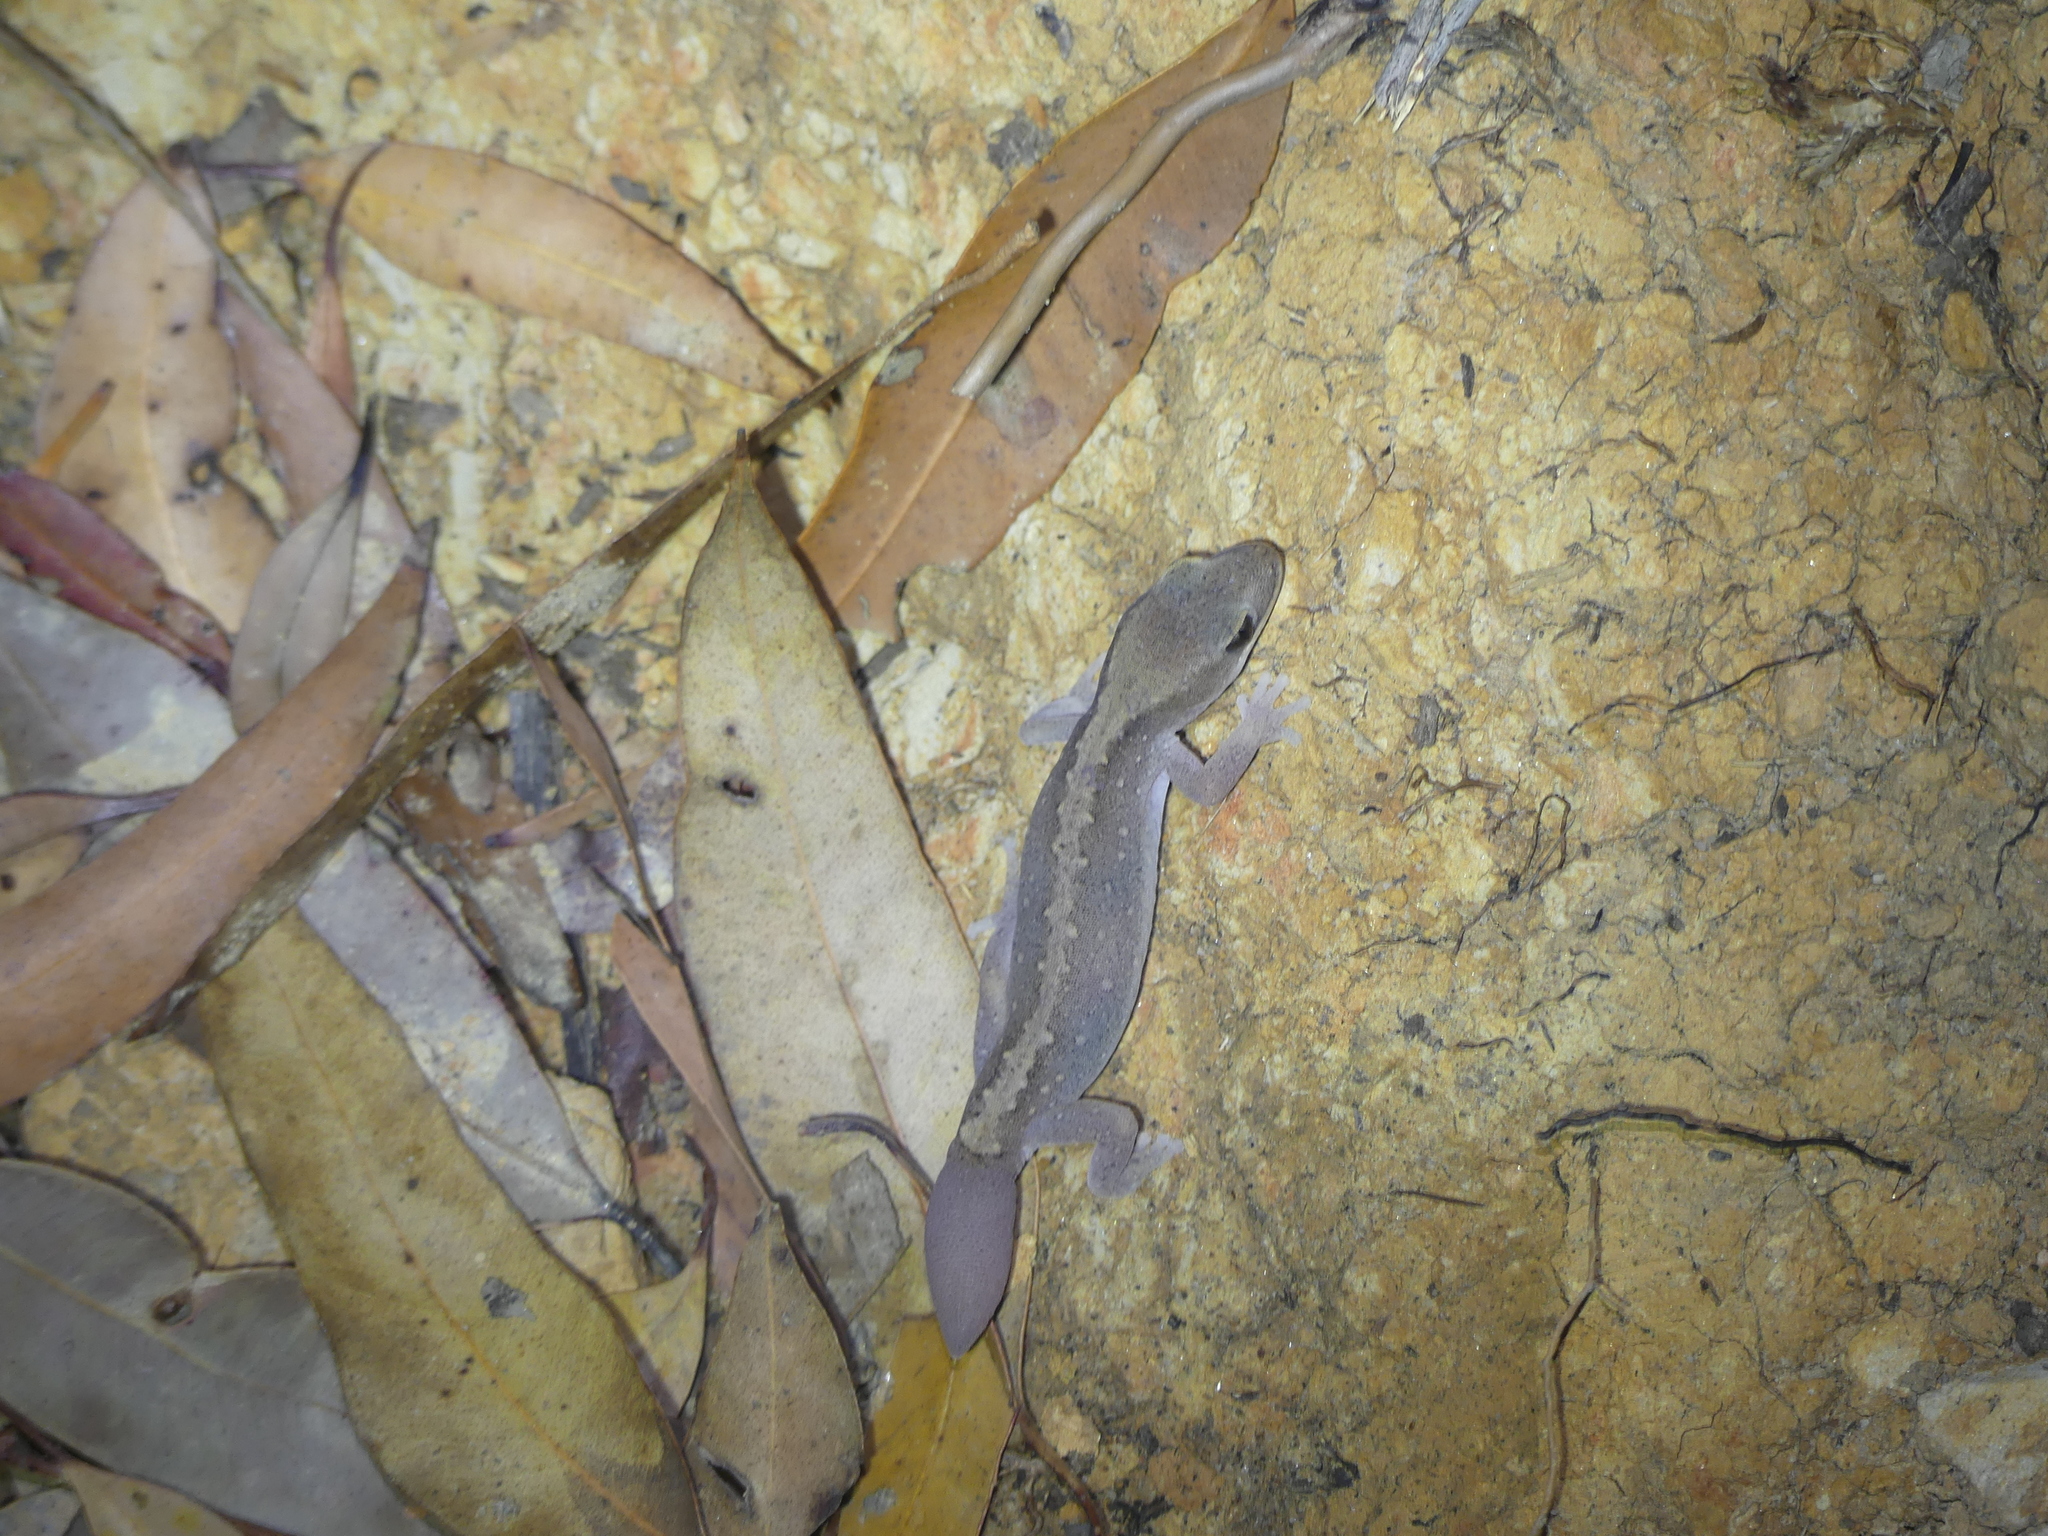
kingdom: Animalia
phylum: Chordata
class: Squamata
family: Diplodactylidae
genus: Diplodactylus
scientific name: Diplodactylus vittatus
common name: Eastern stone gecko
